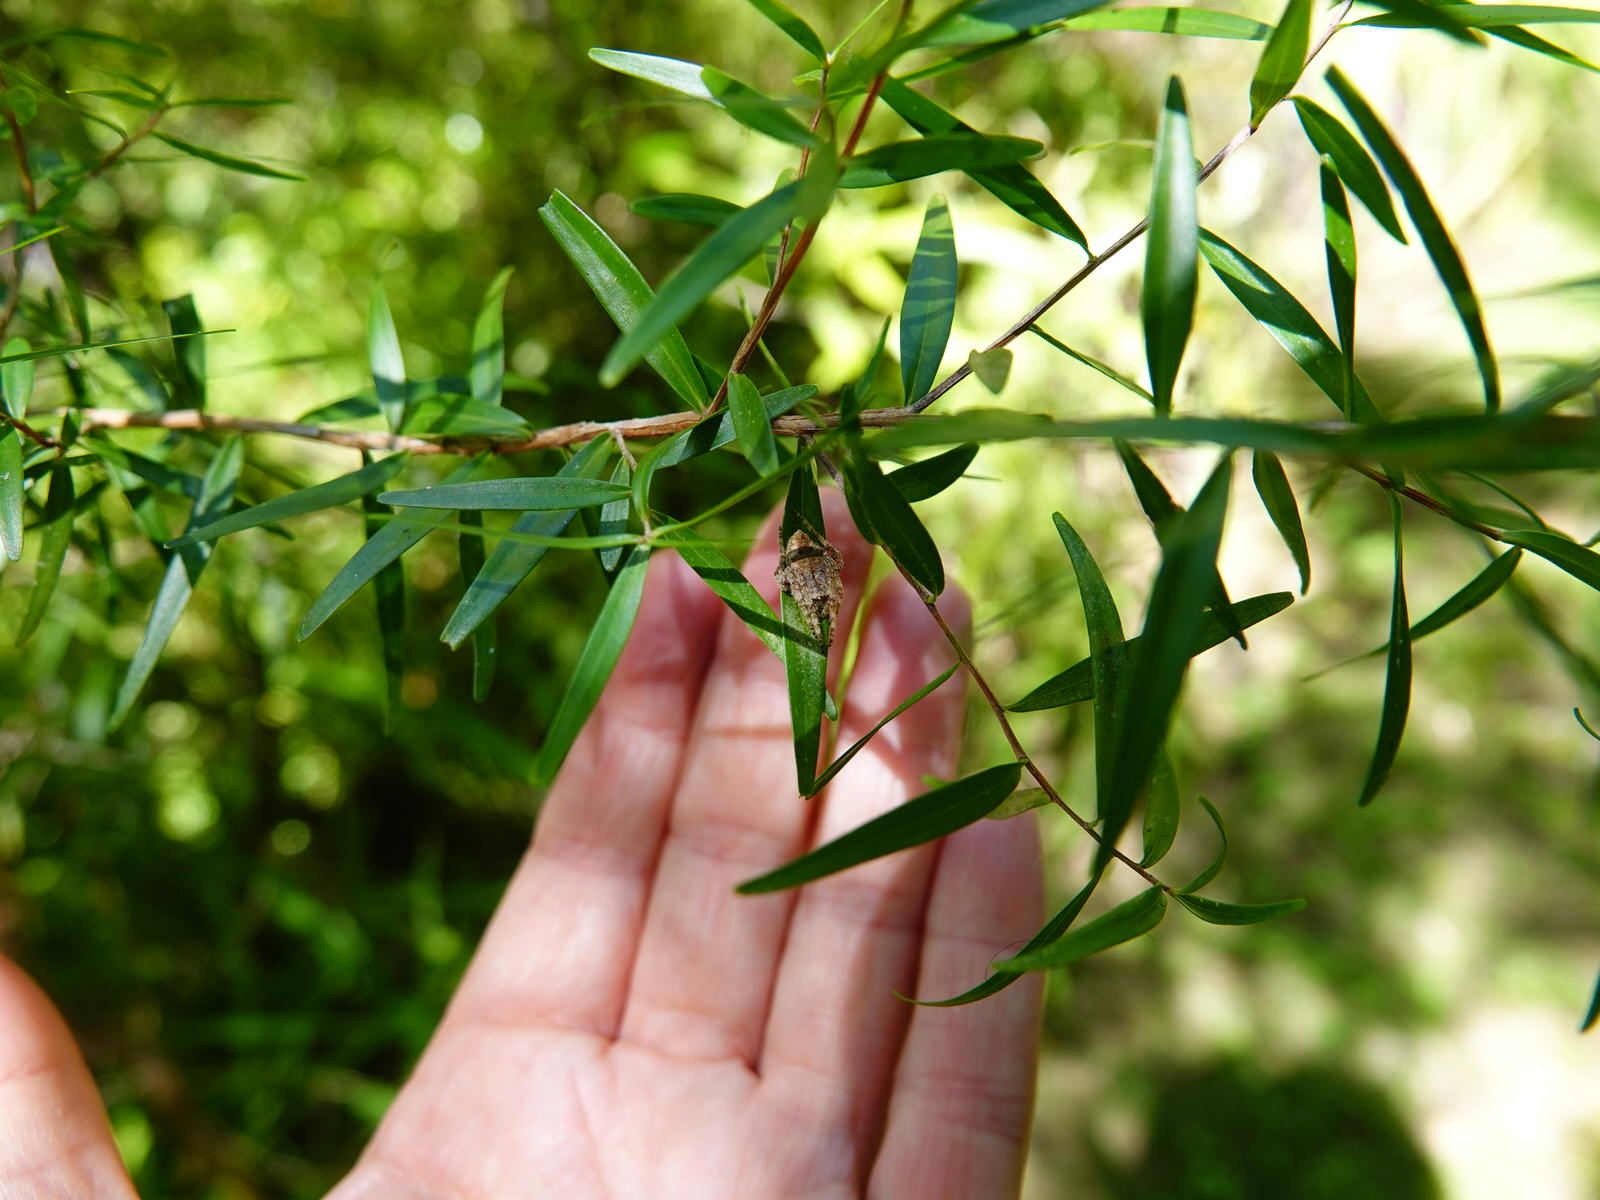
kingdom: Animalia
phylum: Arthropoda
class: Arachnida
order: Araneae
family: Araneidae
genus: Eriophora
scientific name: Eriophora pustulosa
